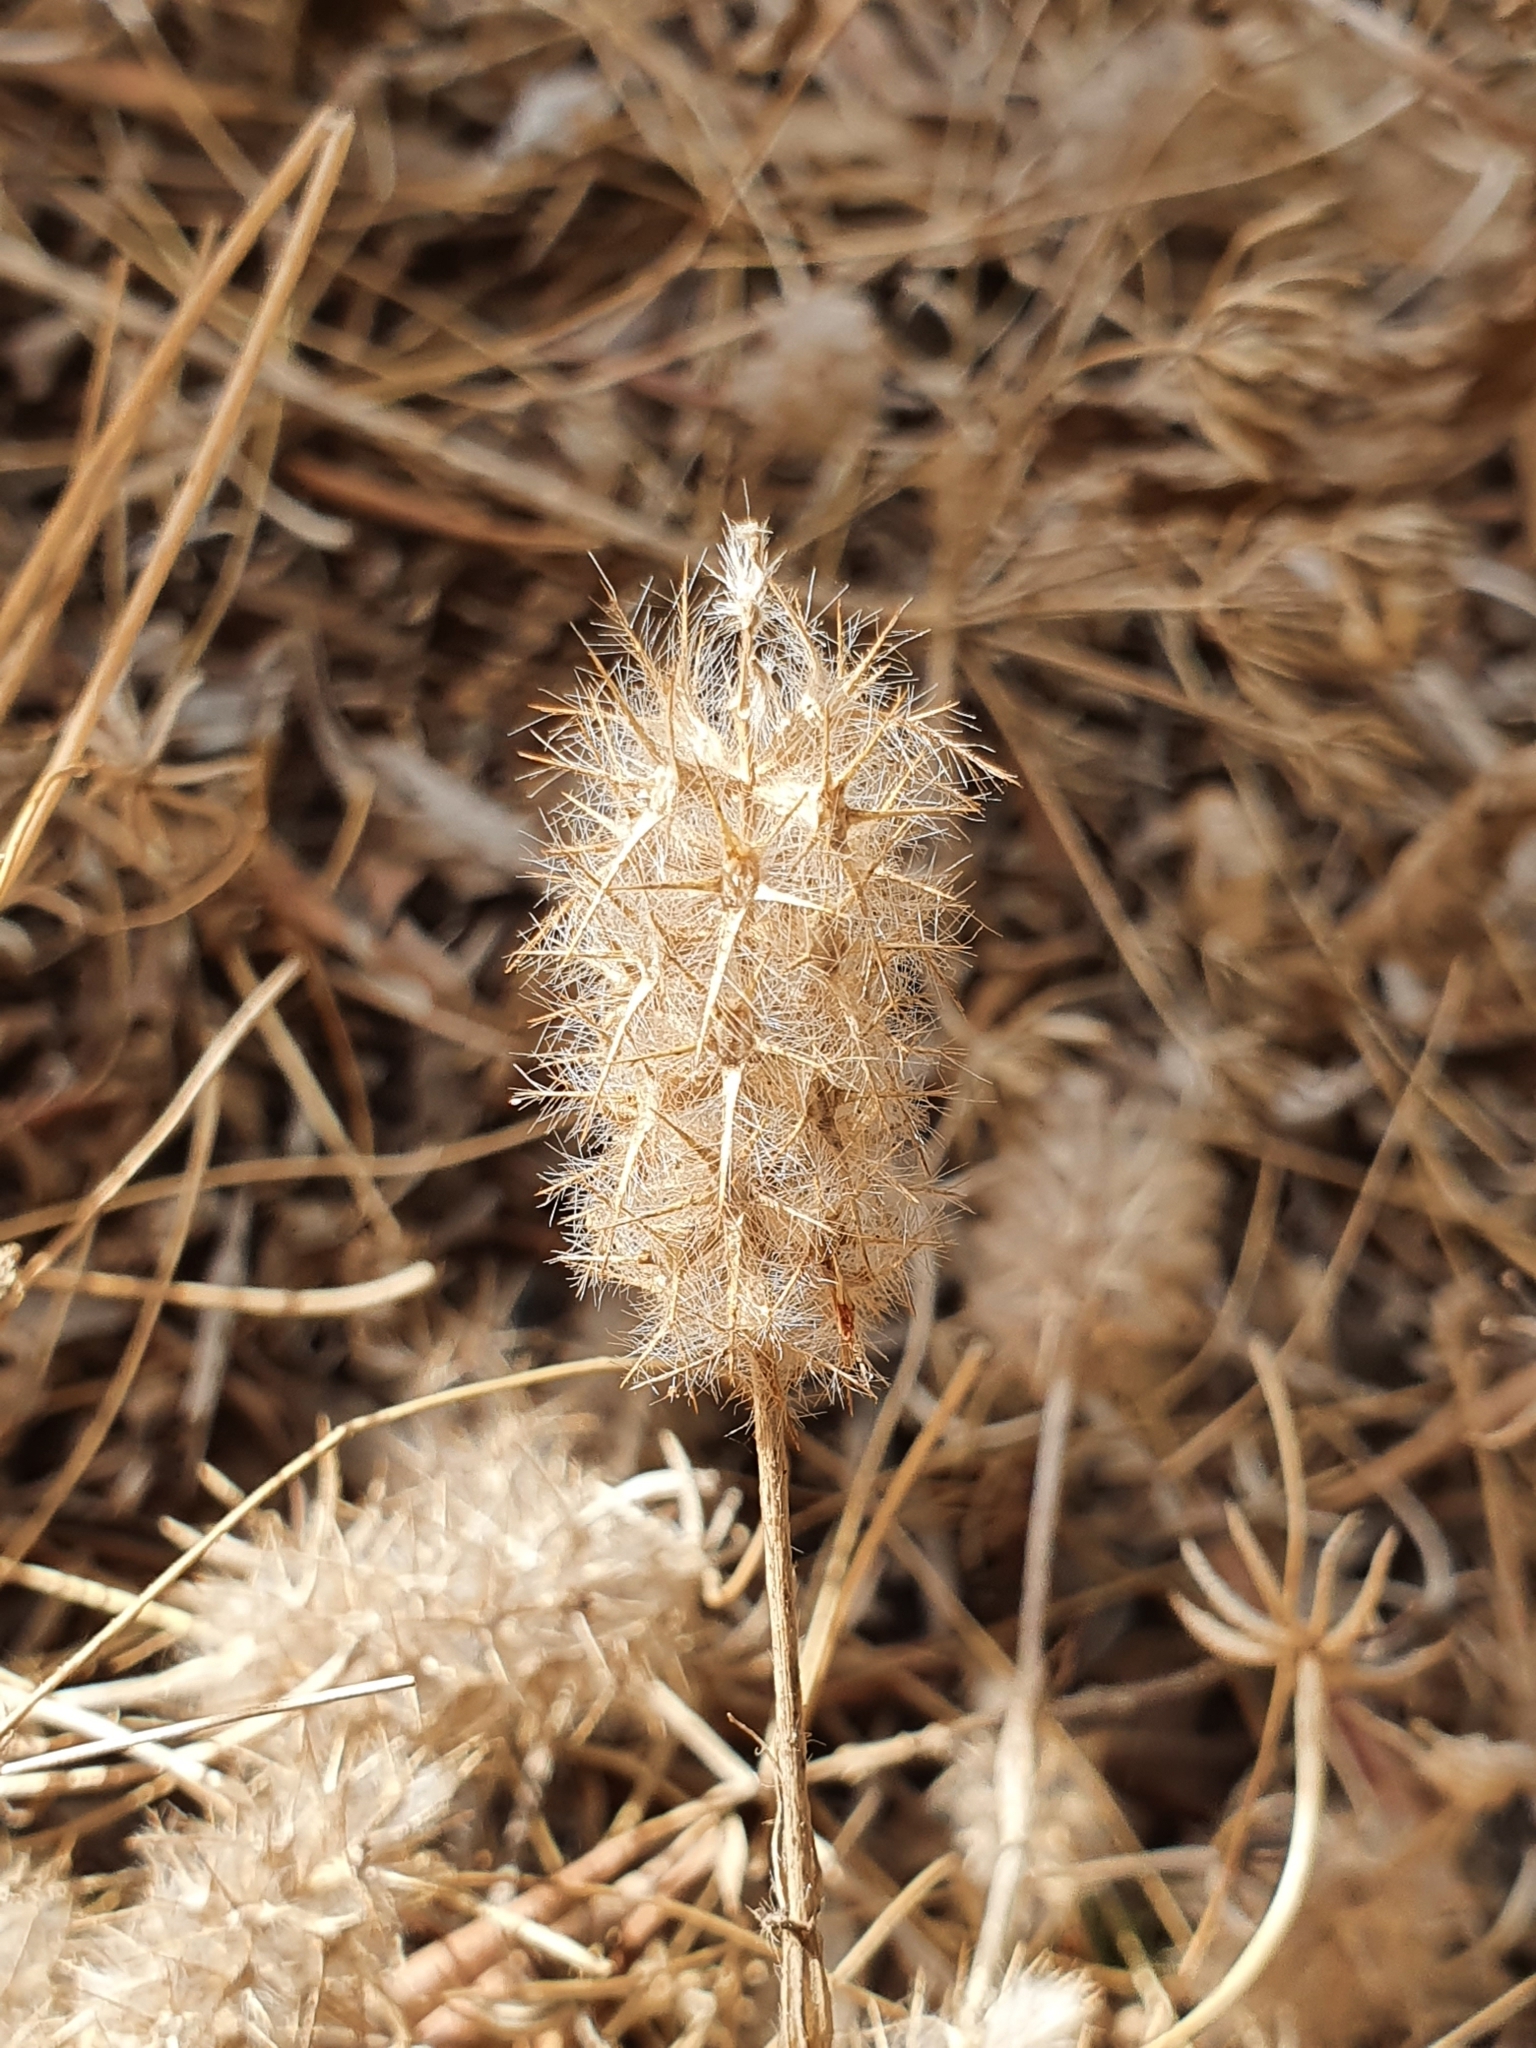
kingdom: Plantae
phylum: Tracheophyta
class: Magnoliopsida
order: Fabales
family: Fabaceae
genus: Trifolium
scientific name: Trifolium angustifolium
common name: Narrow clover
